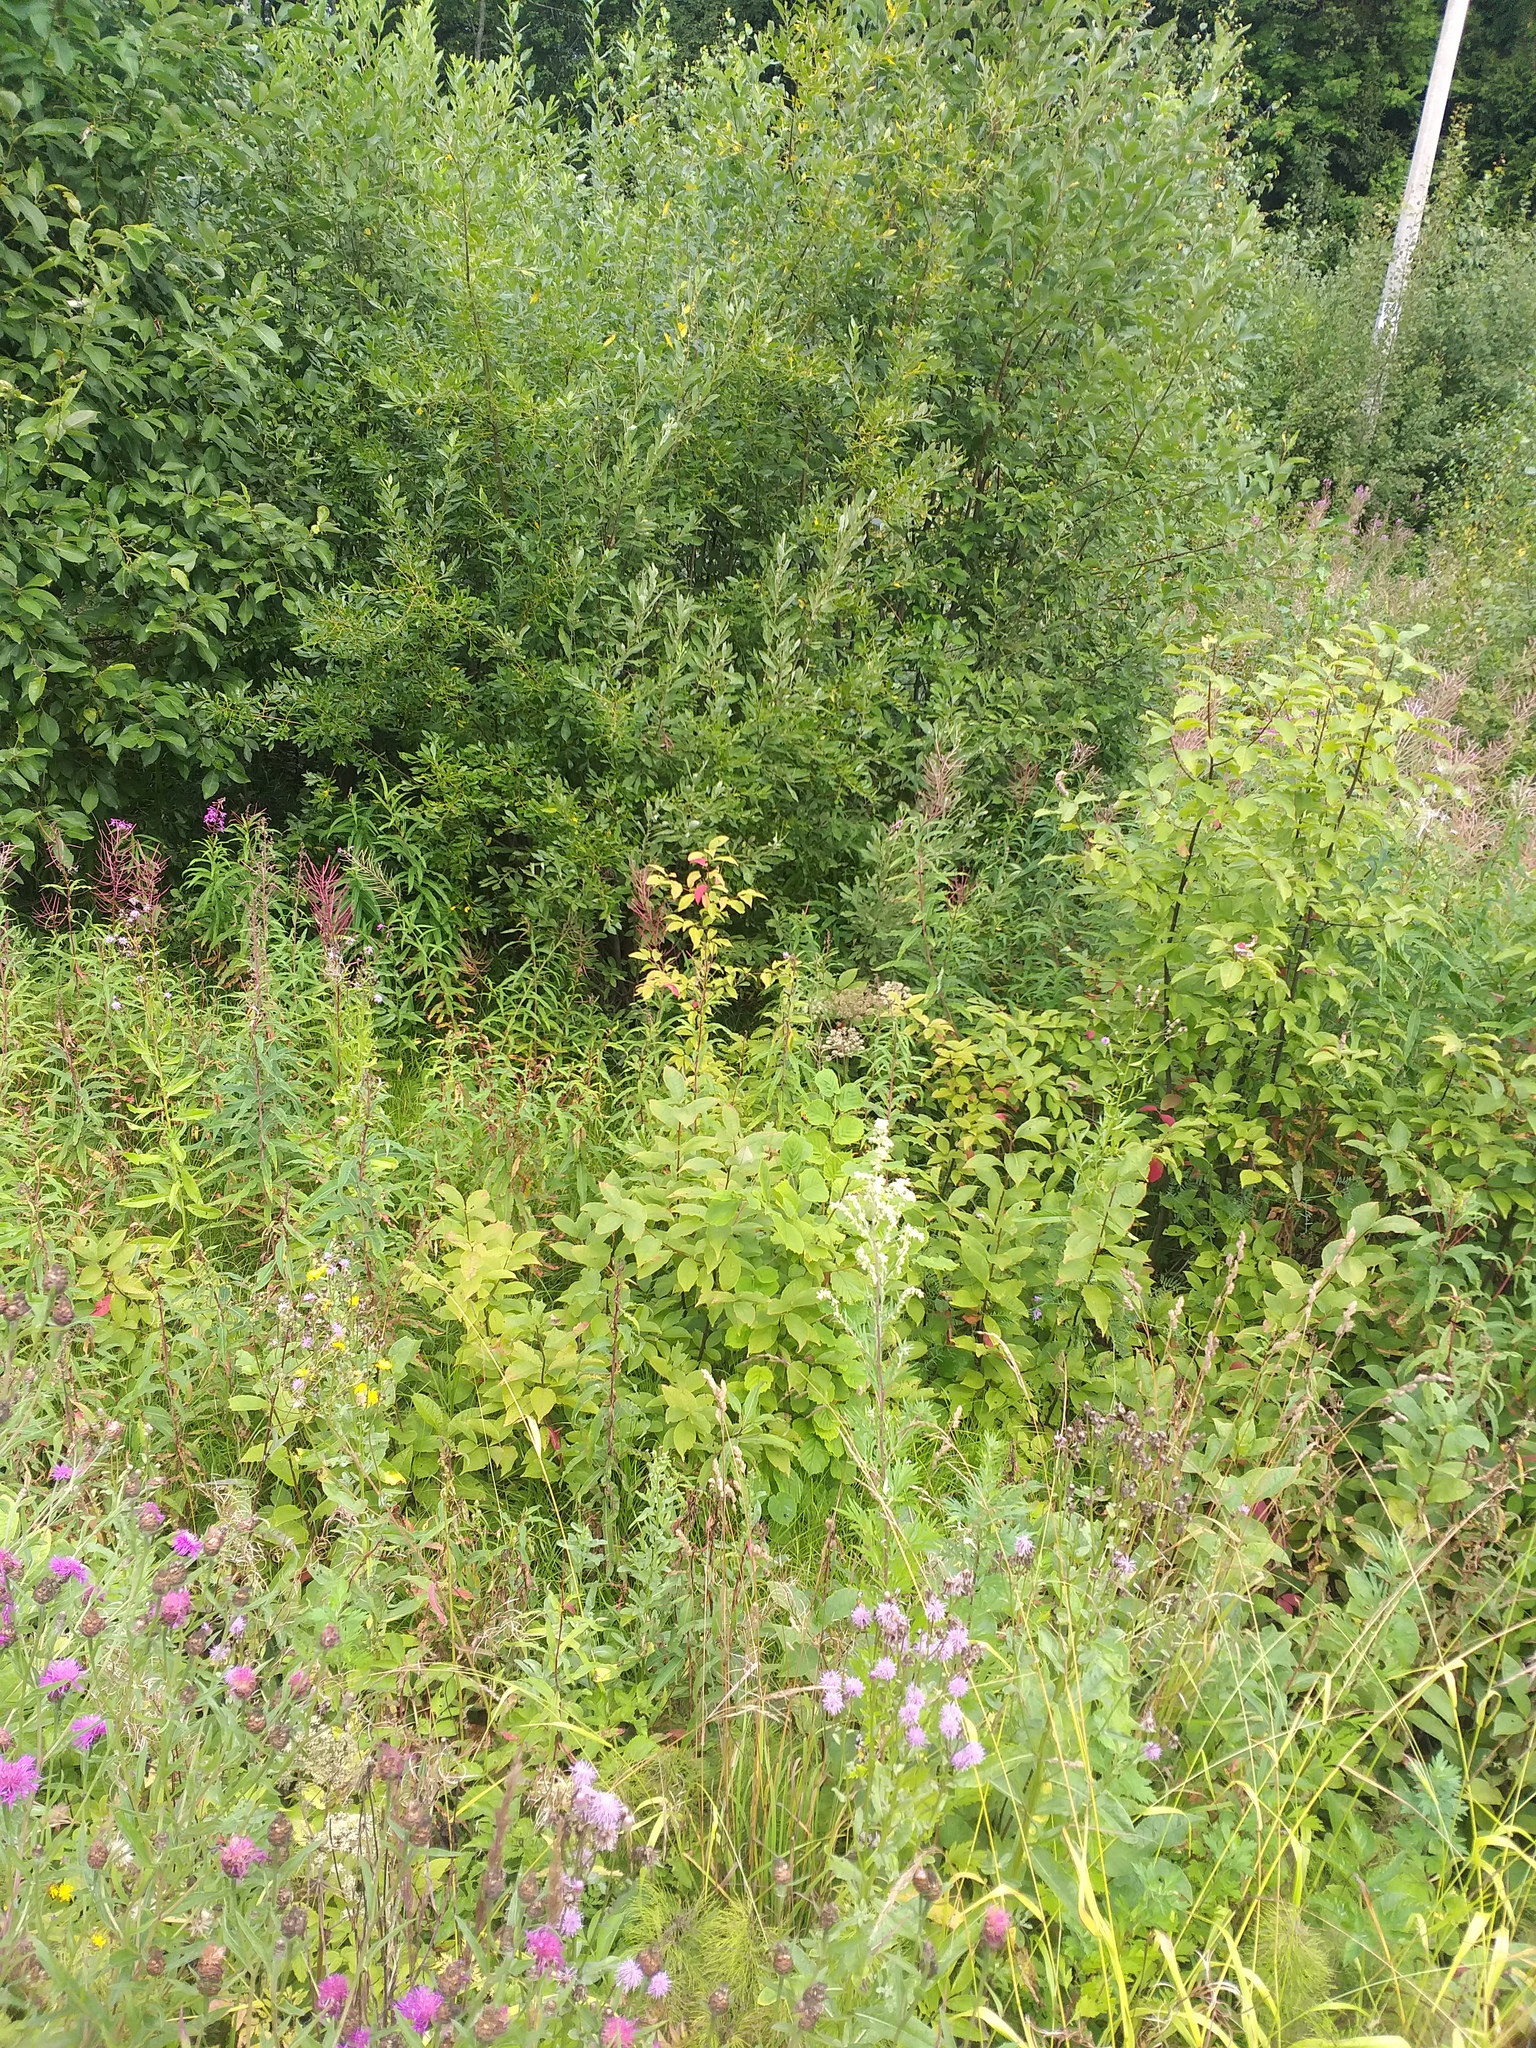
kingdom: Plantae
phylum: Tracheophyta
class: Magnoliopsida
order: Fagales
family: Betulaceae
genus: Corylus
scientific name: Corylus avellana
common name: European hazel
